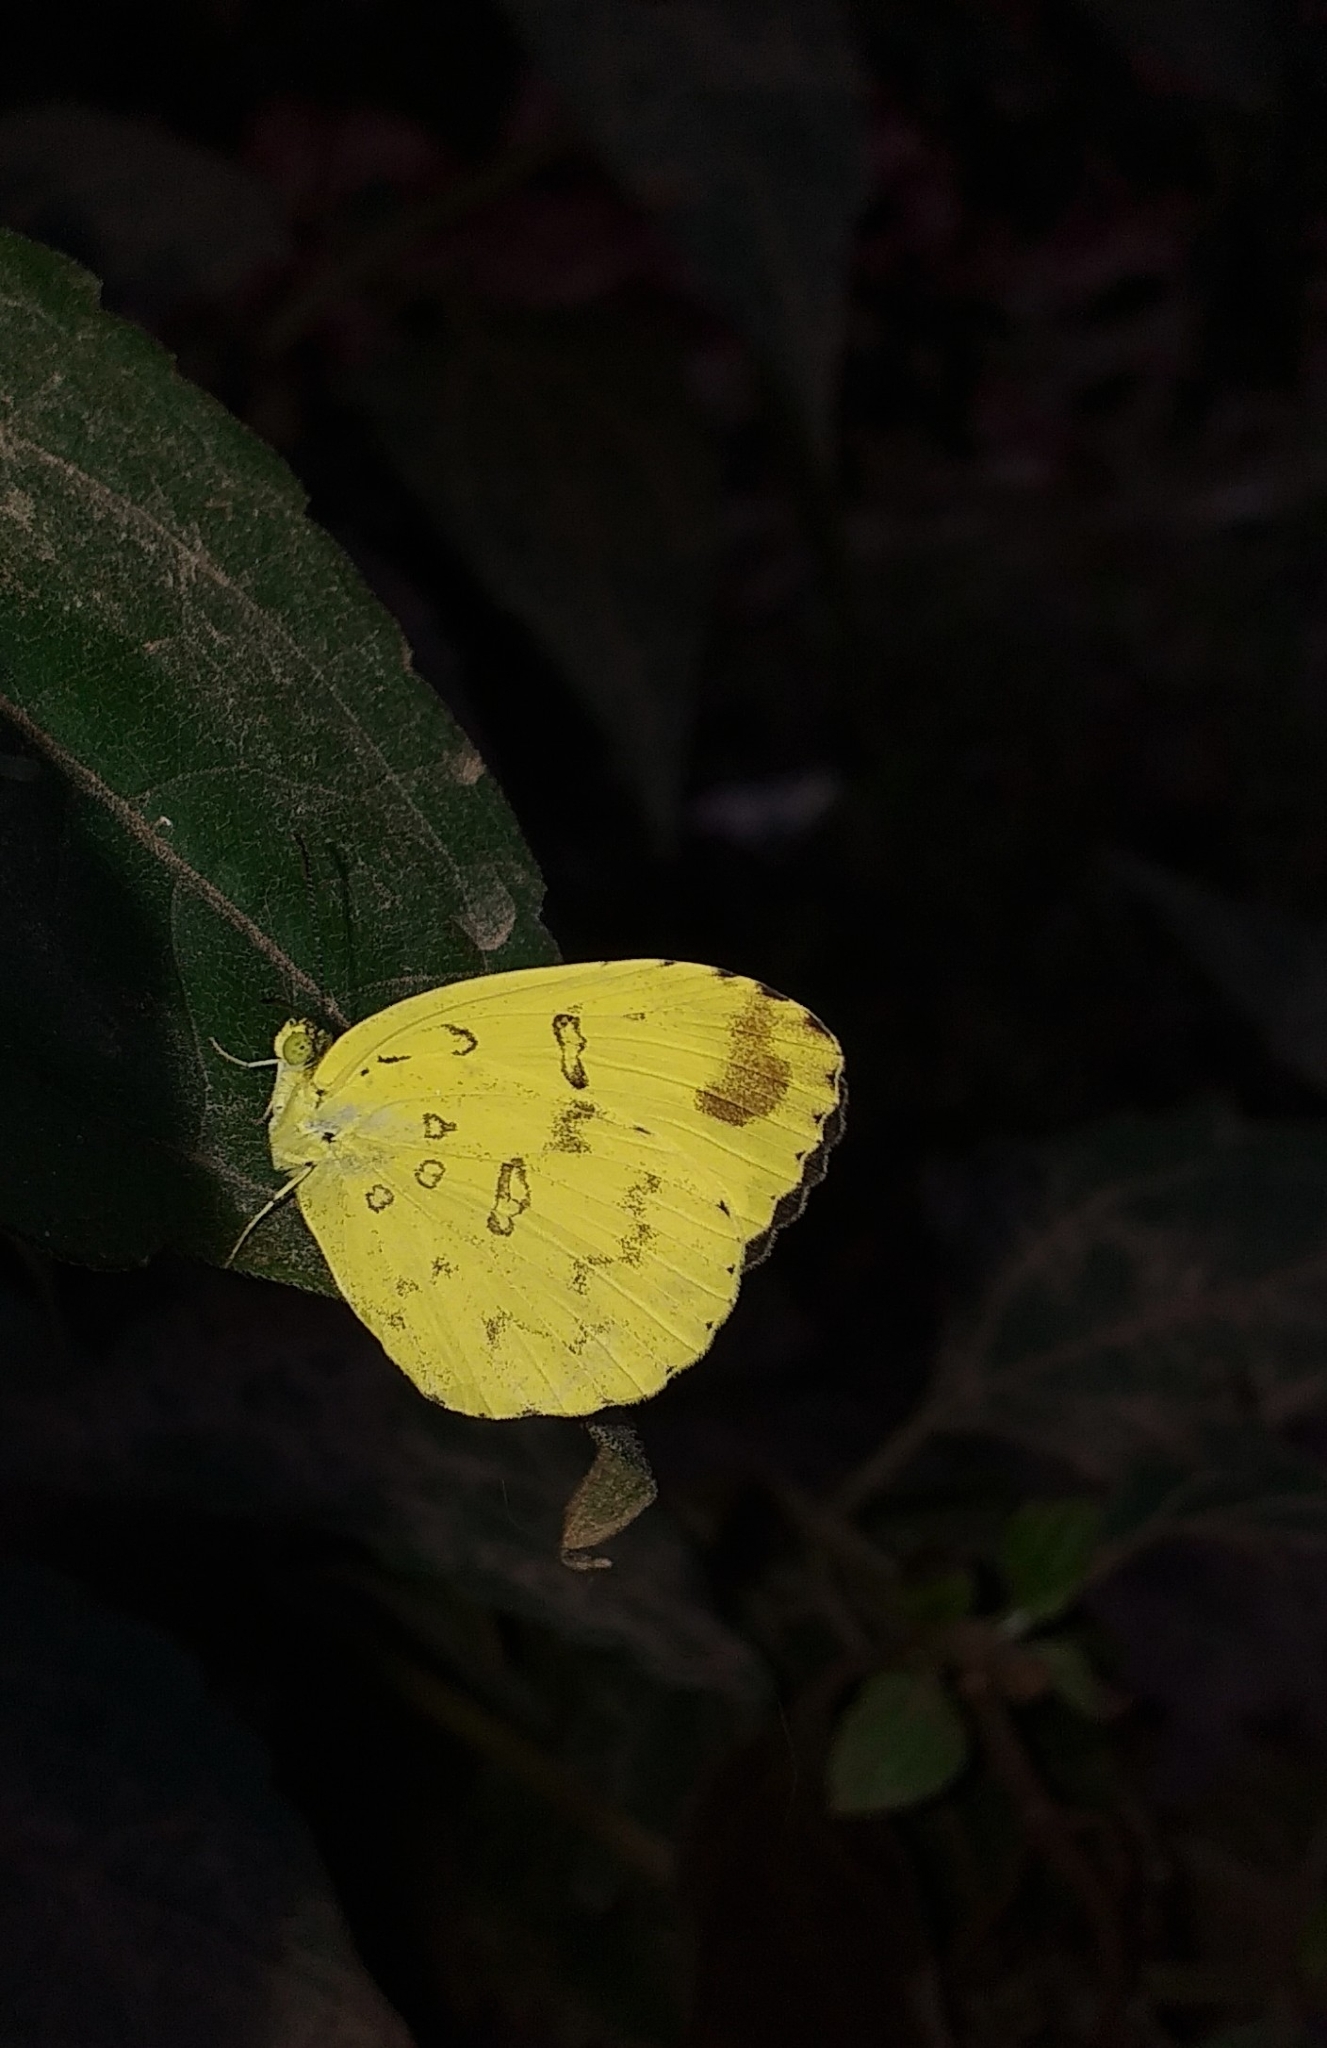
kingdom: Animalia
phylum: Arthropoda
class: Insecta
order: Lepidoptera
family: Pieridae
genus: Eurema
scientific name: Eurema blanda
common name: Three-spot grass yellow
